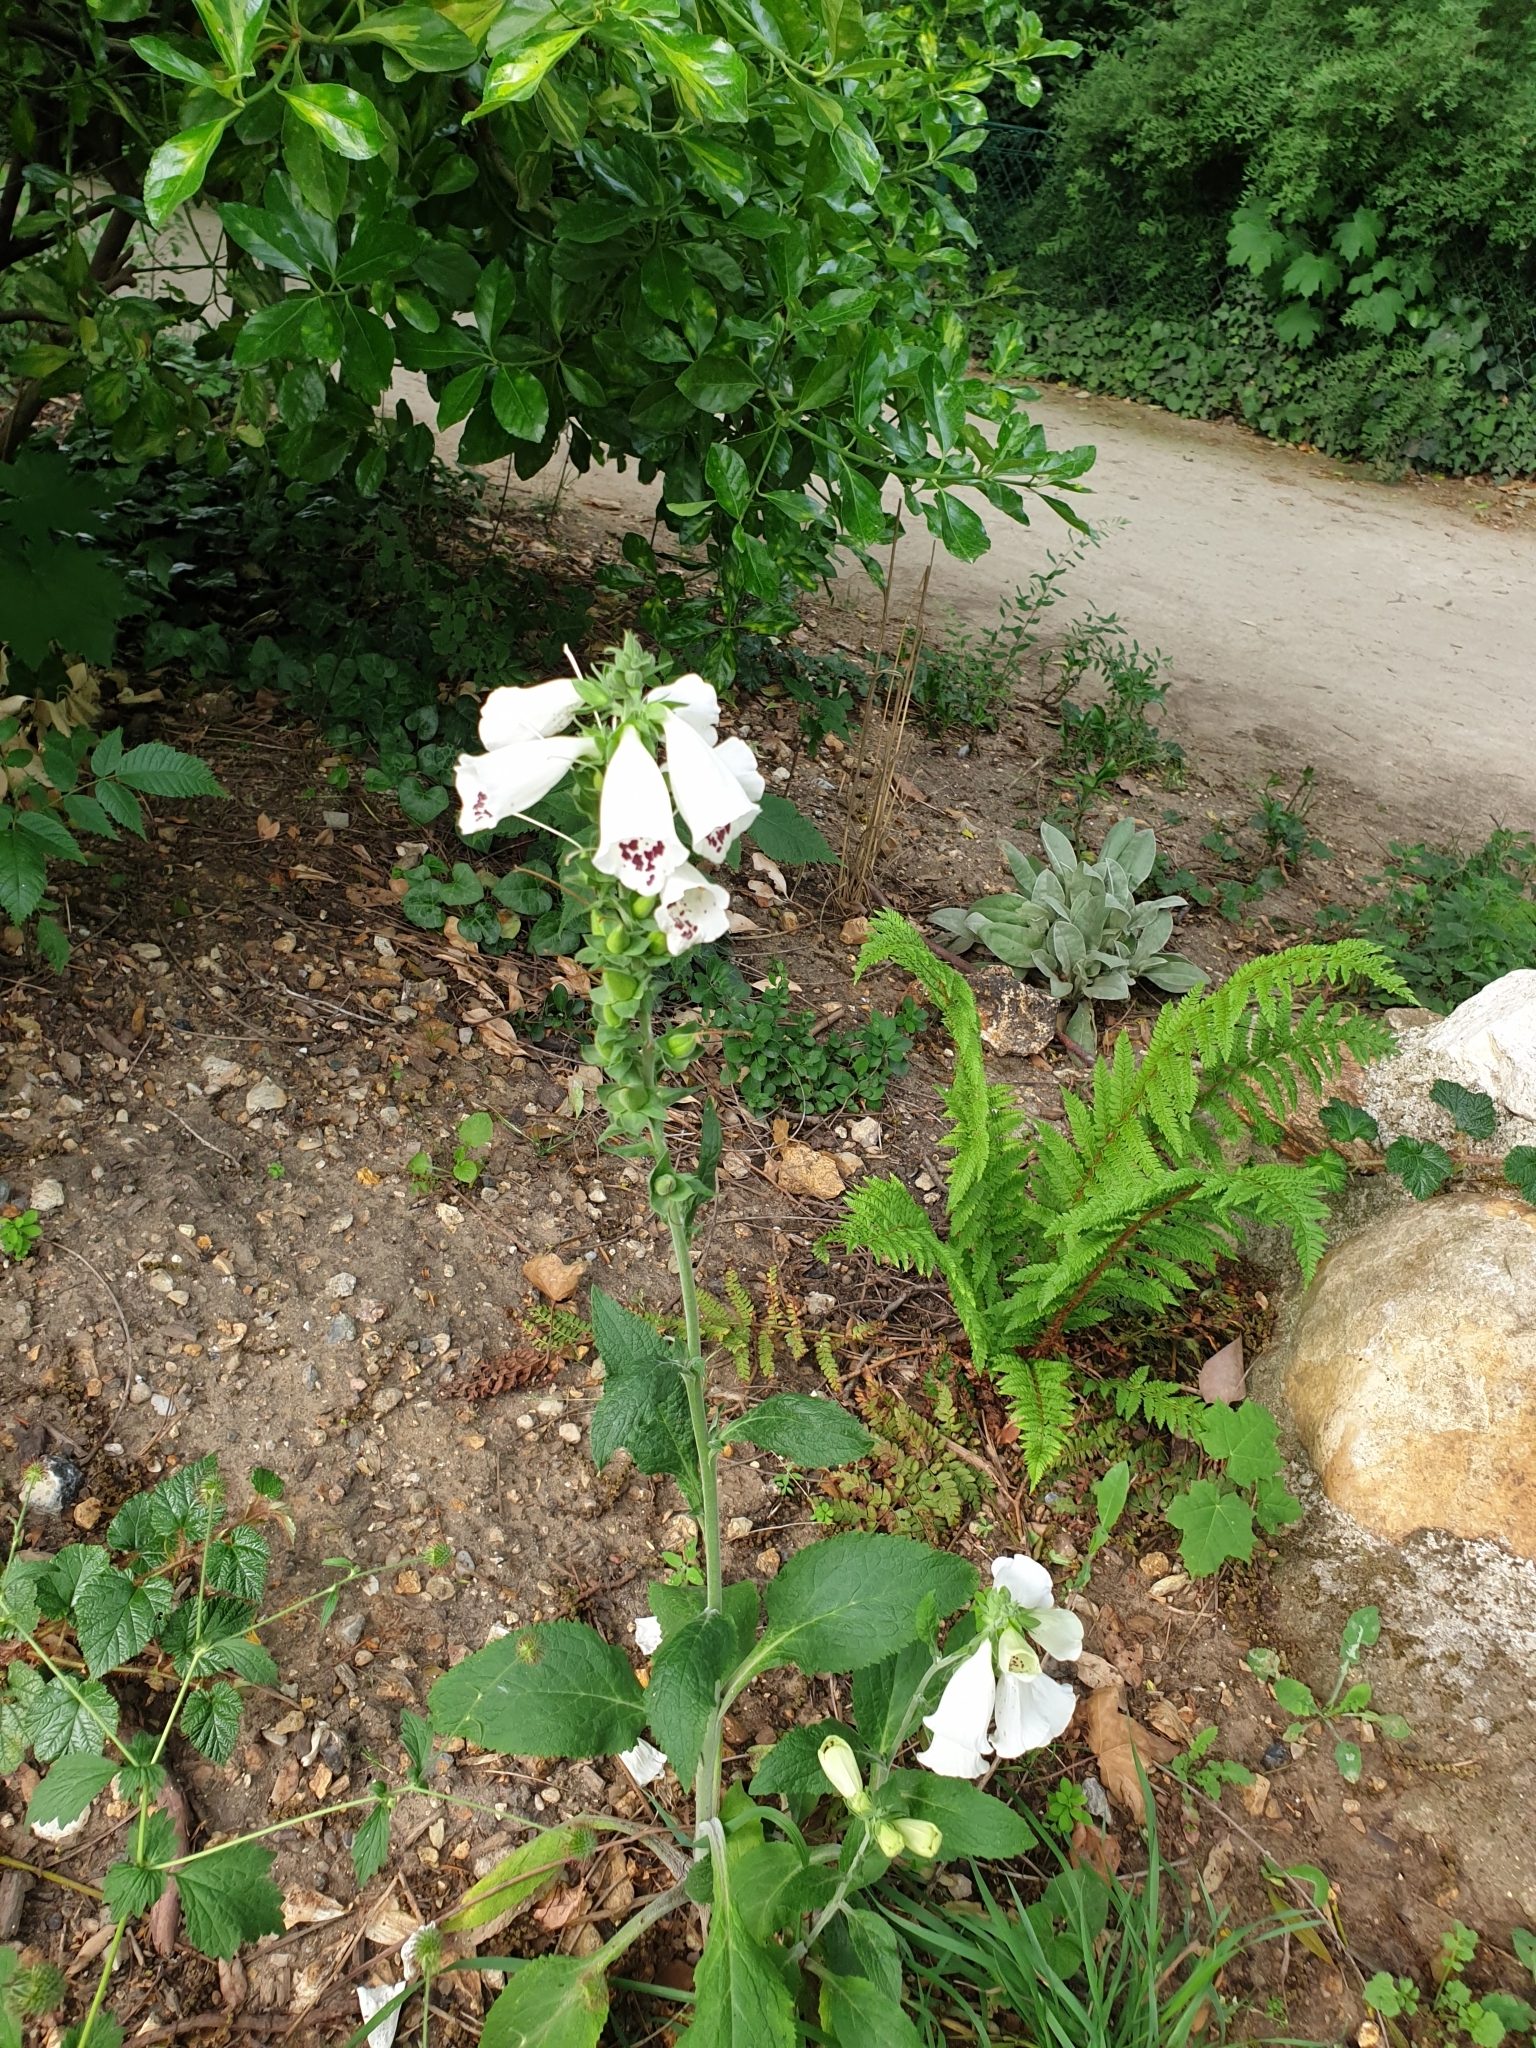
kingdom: Plantae
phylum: Tracheophyta
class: Magnoliopsida
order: Lamiales
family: Plantaginaceae
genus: Digitalis
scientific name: Digitalis purpurea
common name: Foxglove
